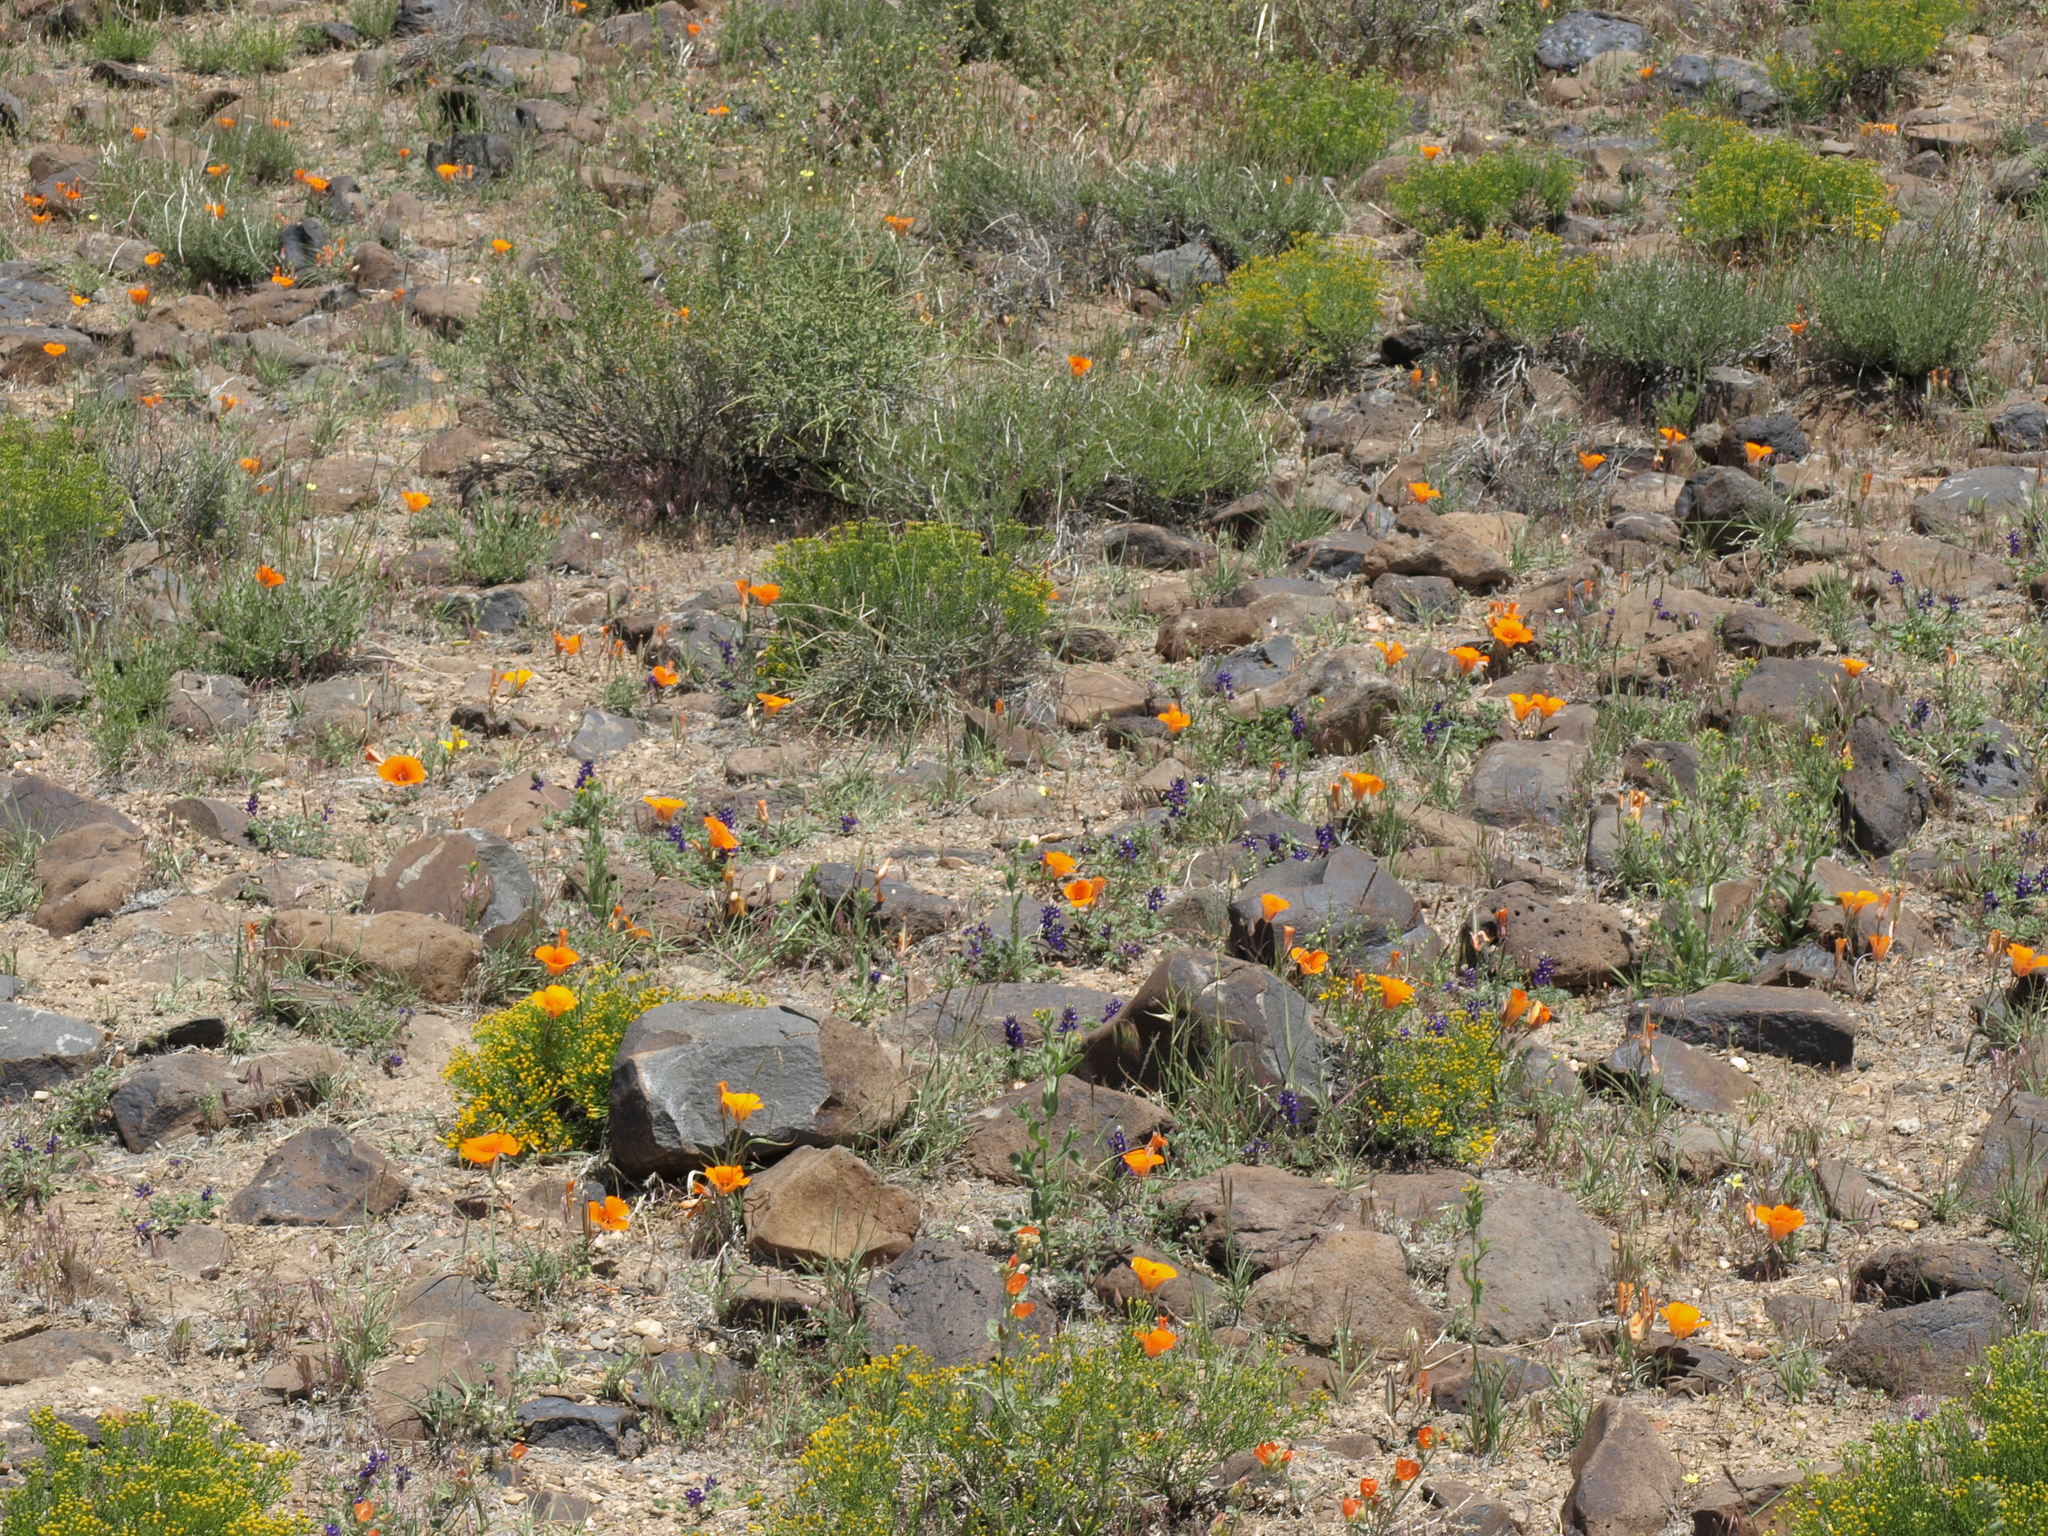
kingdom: Plantae
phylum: Tracheophyta
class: Liliopsida
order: Liliales
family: Liliaceae
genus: Calochortus
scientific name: Calochortus kennedyi
